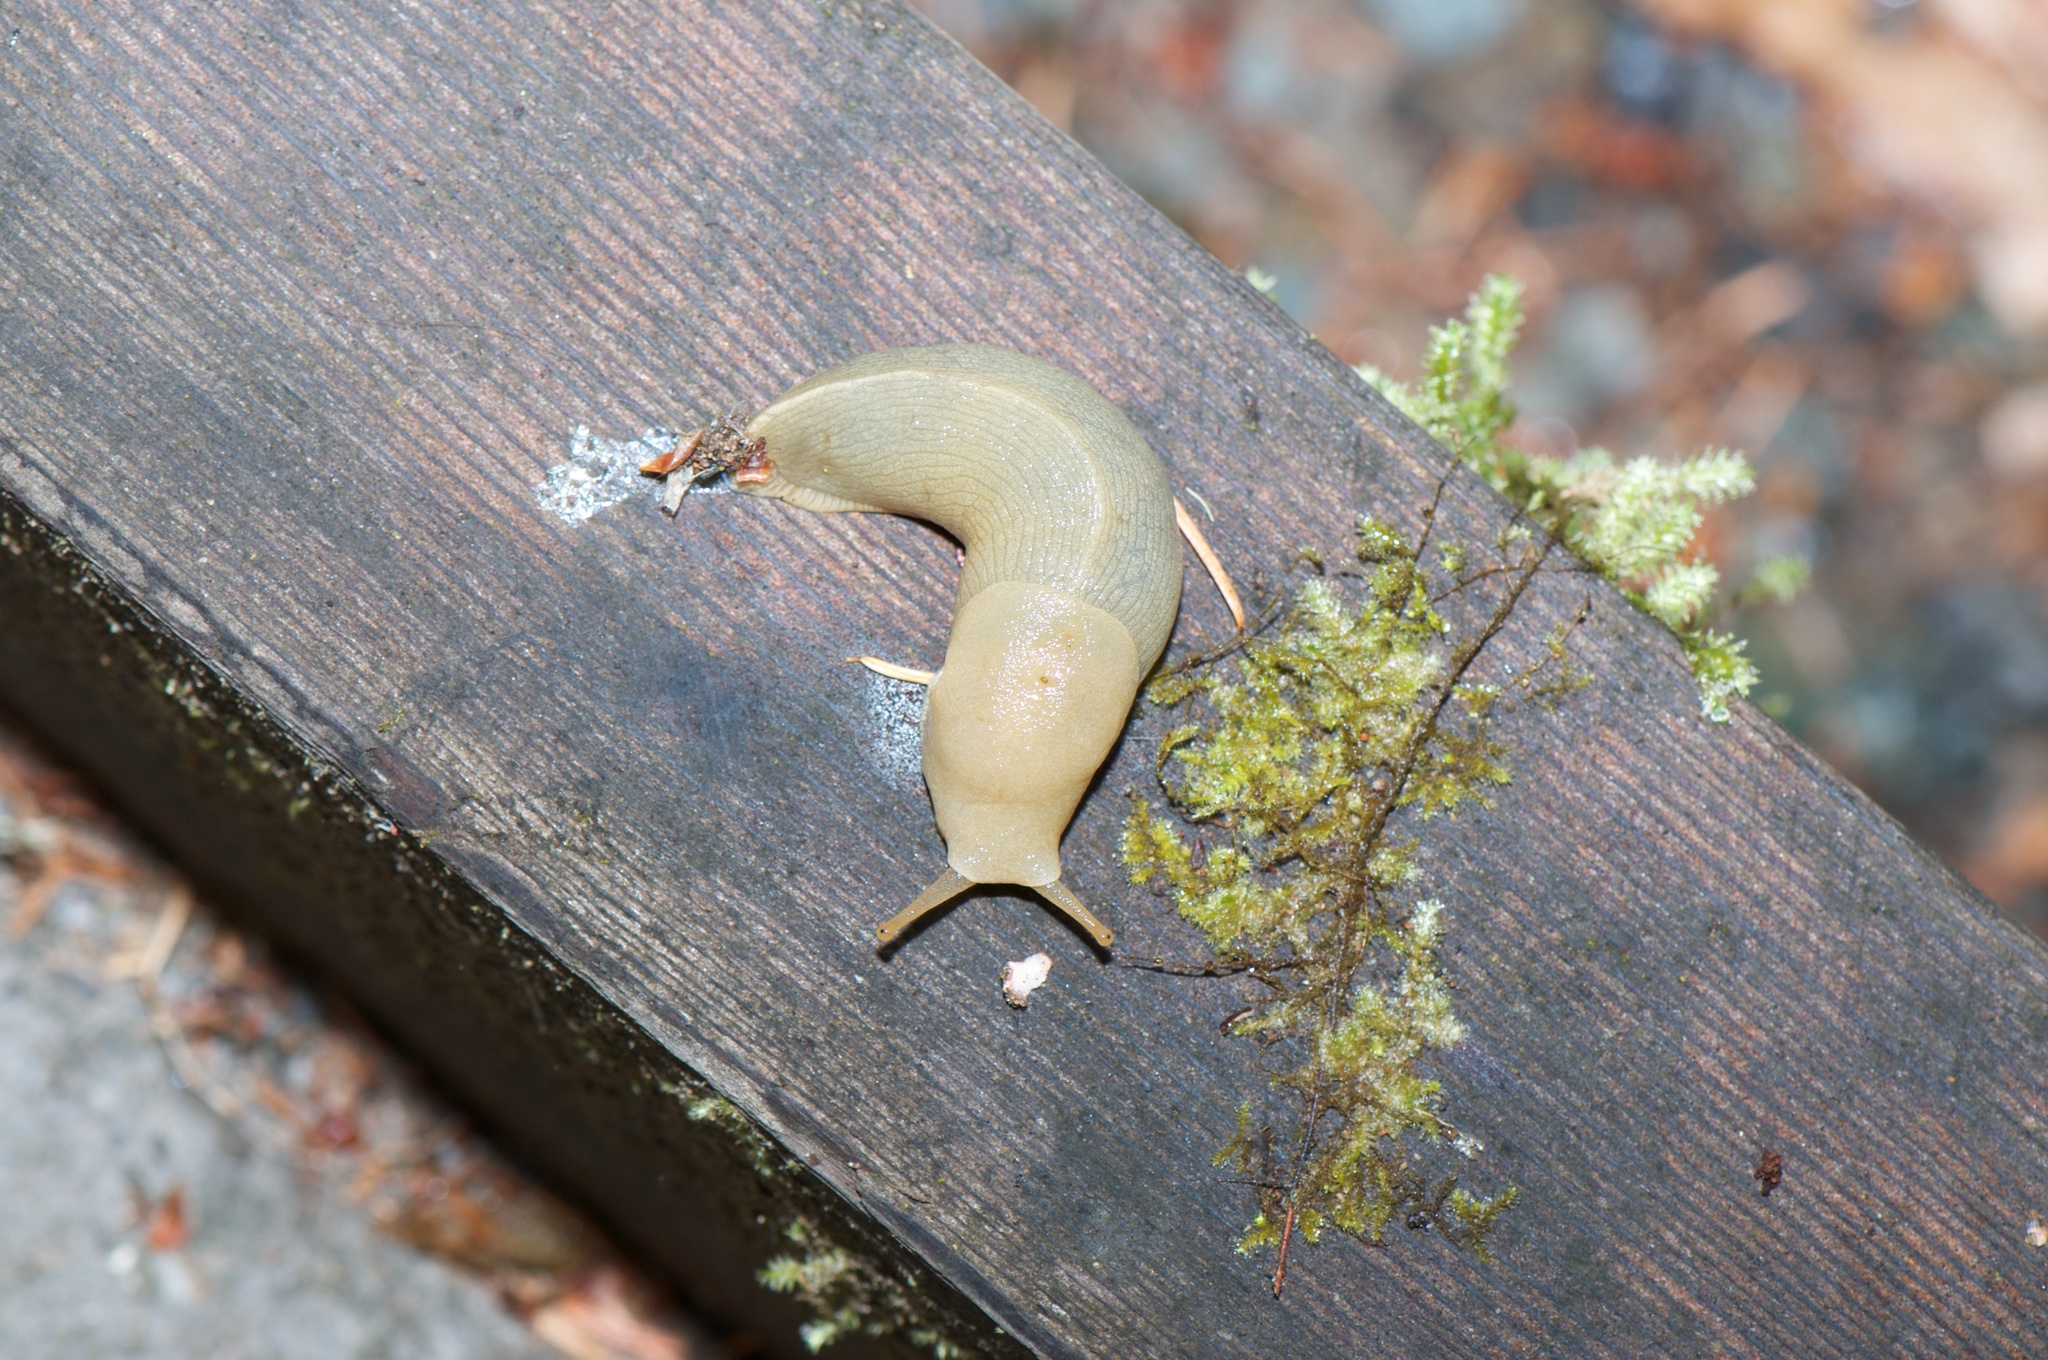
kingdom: Animalia
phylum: Mollusca
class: Gastropoda
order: Stylommatophora
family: Ariolimacidae
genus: Ariolimax
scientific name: Ariolimax columbianus
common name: Pacific banana slug
